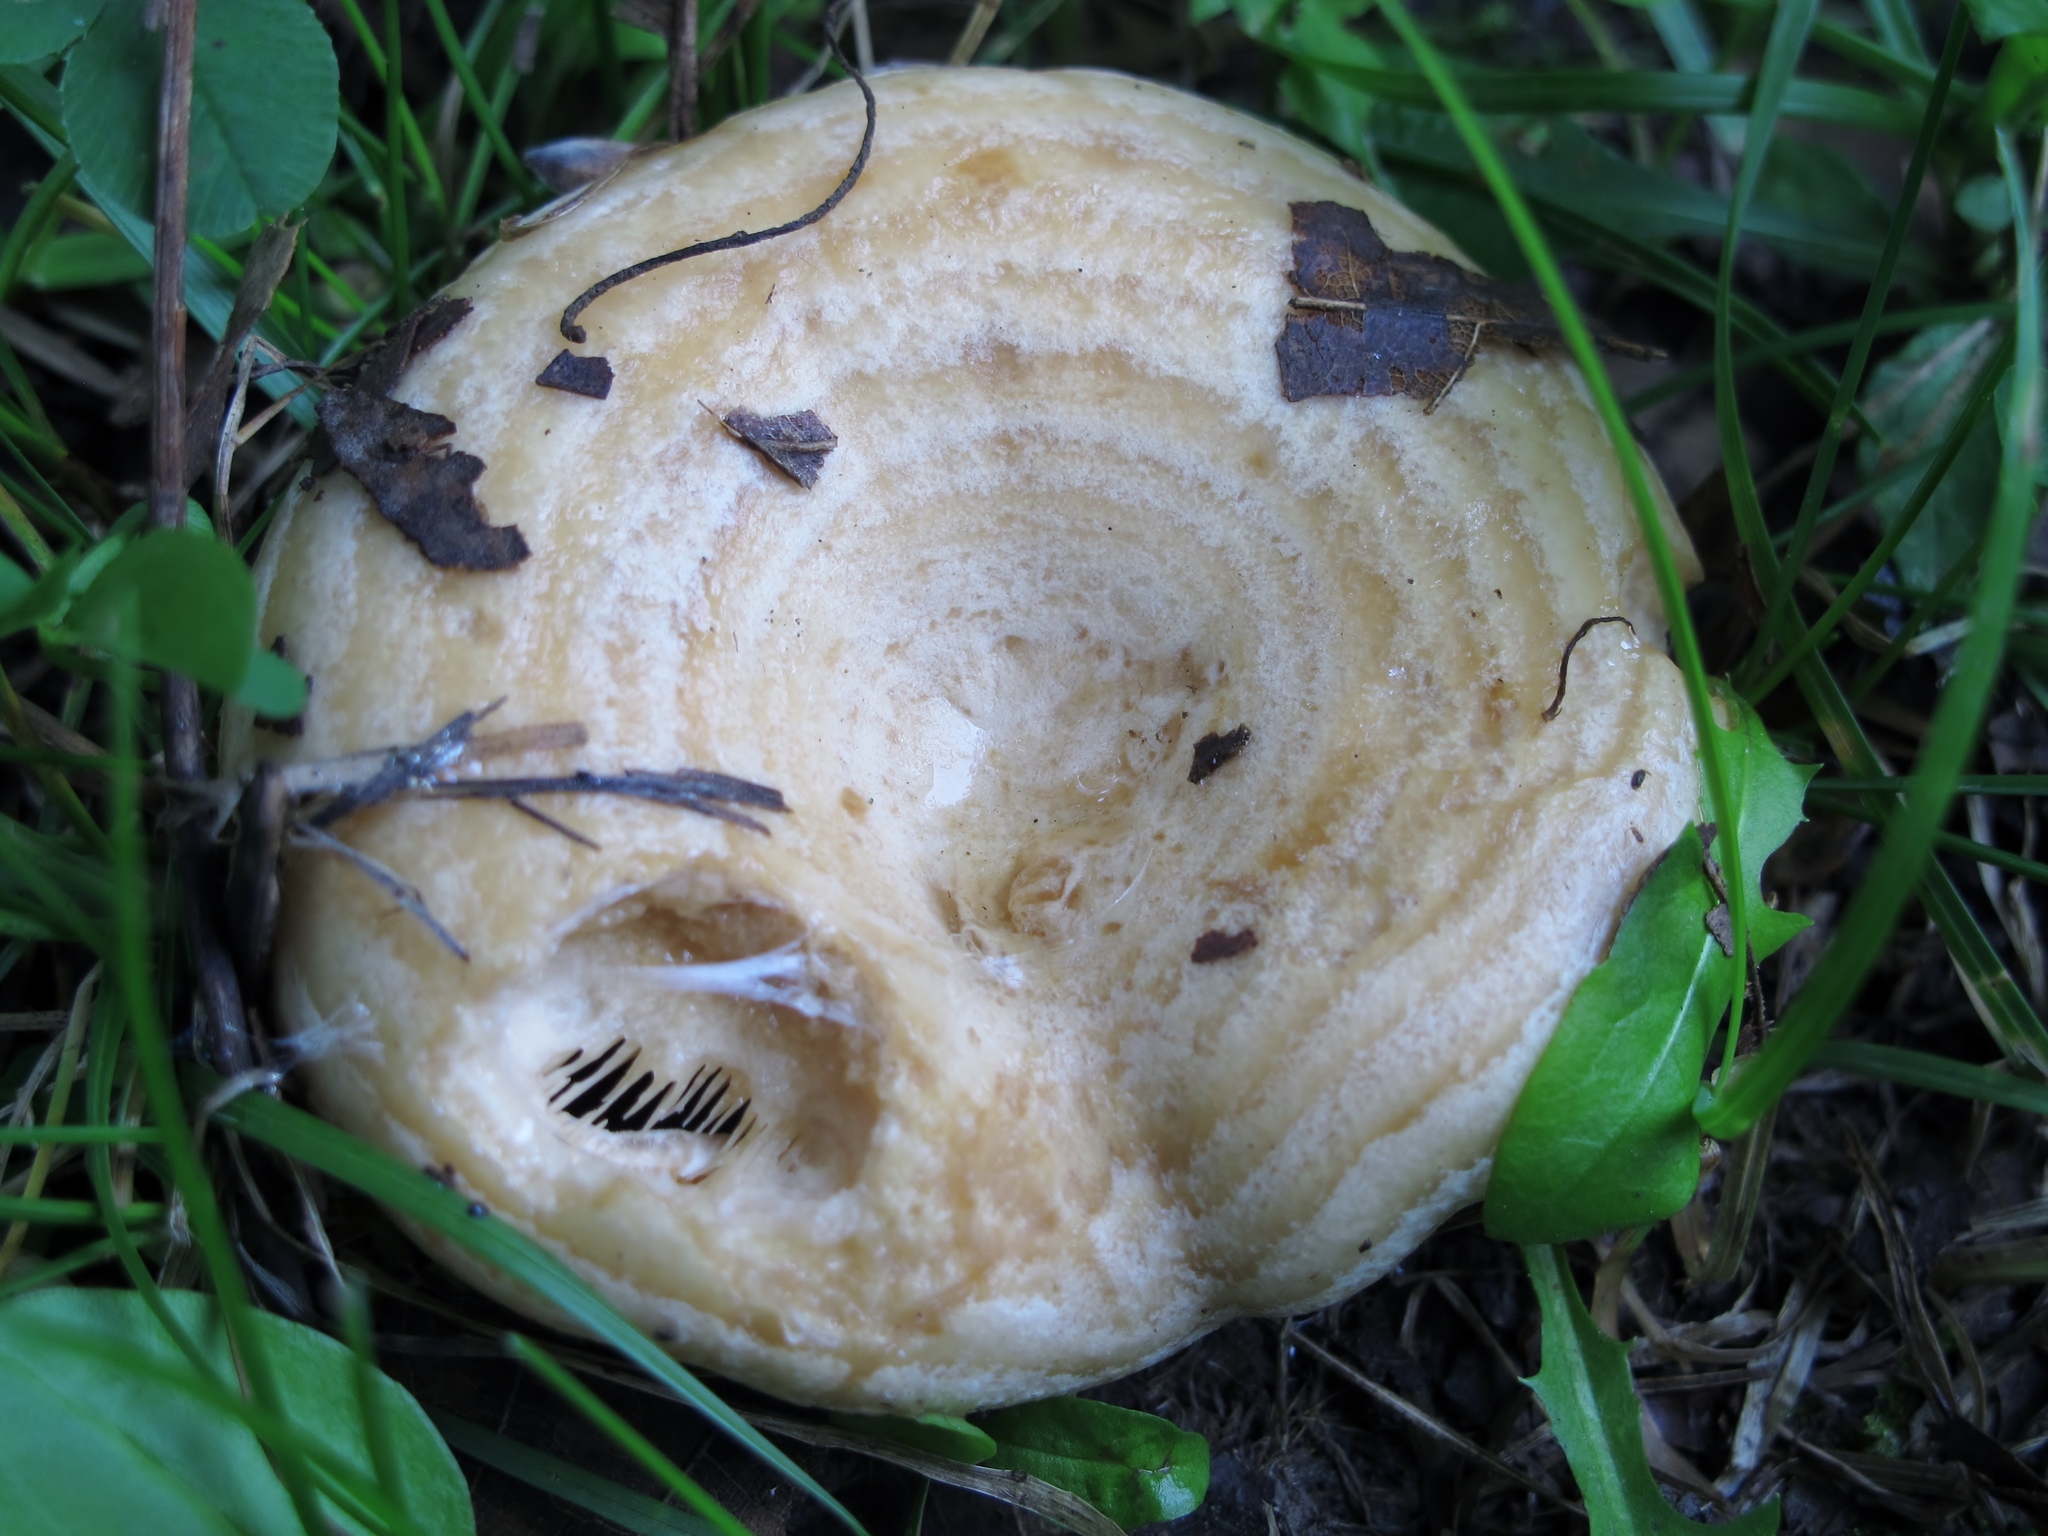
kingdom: Fungi
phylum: Basidiomycota
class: Agaricomycetes
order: Russulales
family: Russulaceae
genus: Lactarius
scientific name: Lactarius psammicola
